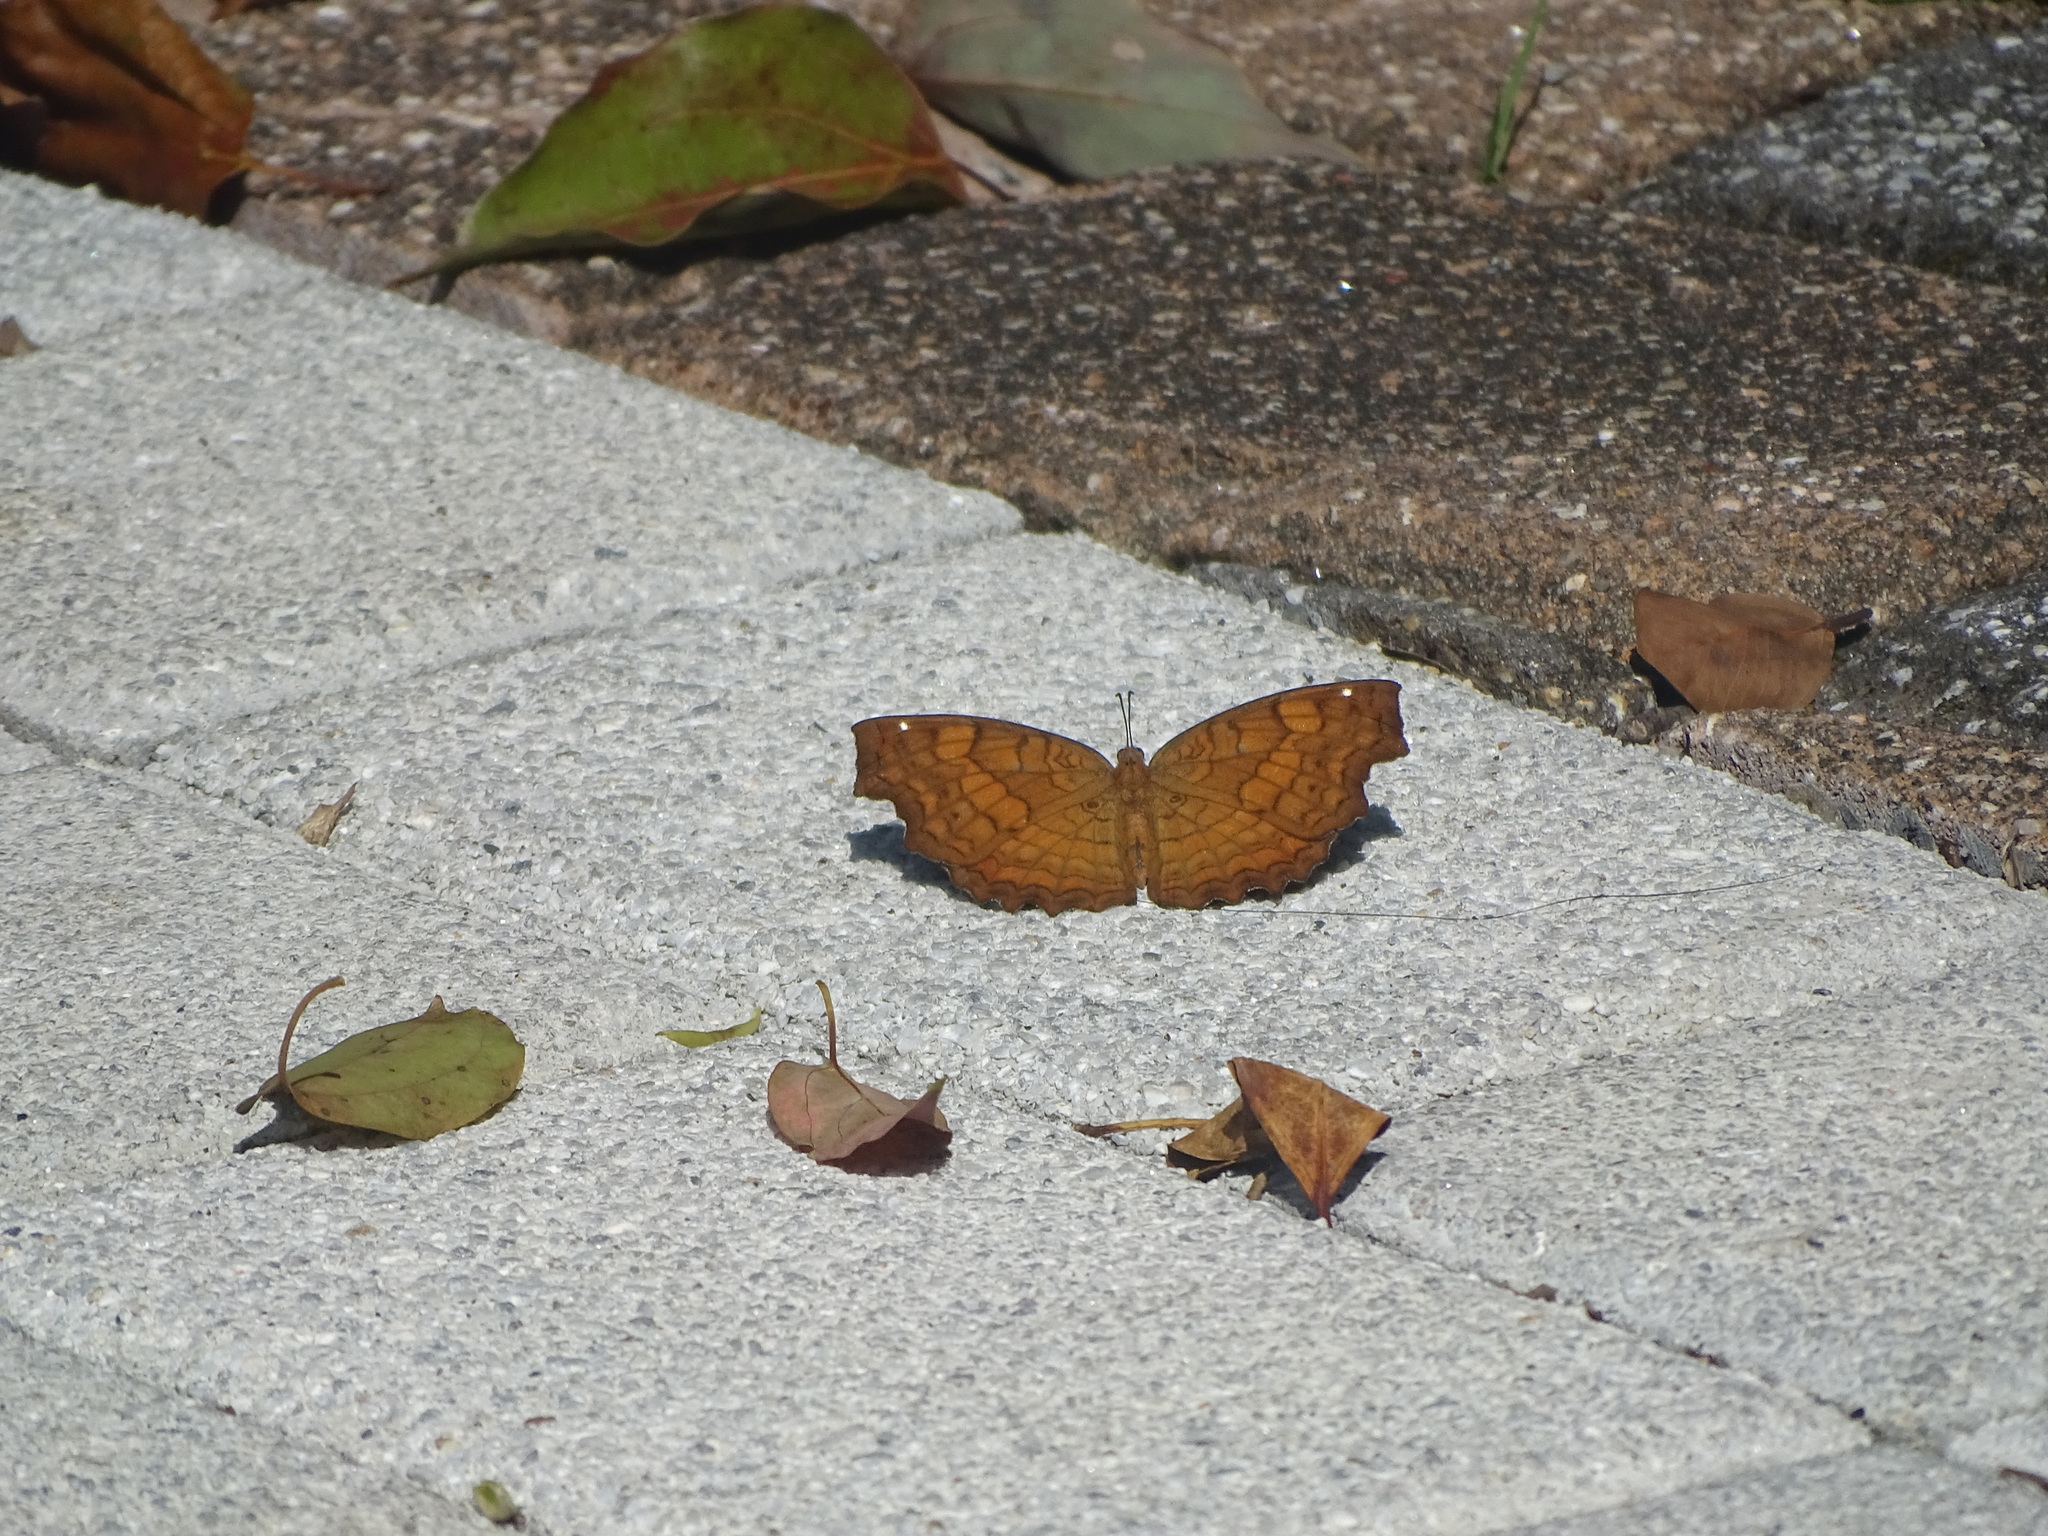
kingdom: Animalia
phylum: Arthropoda
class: Insecta
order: Lepidoptera
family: Nymphalidae
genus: Ariadne
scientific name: Ariadne ariadne
